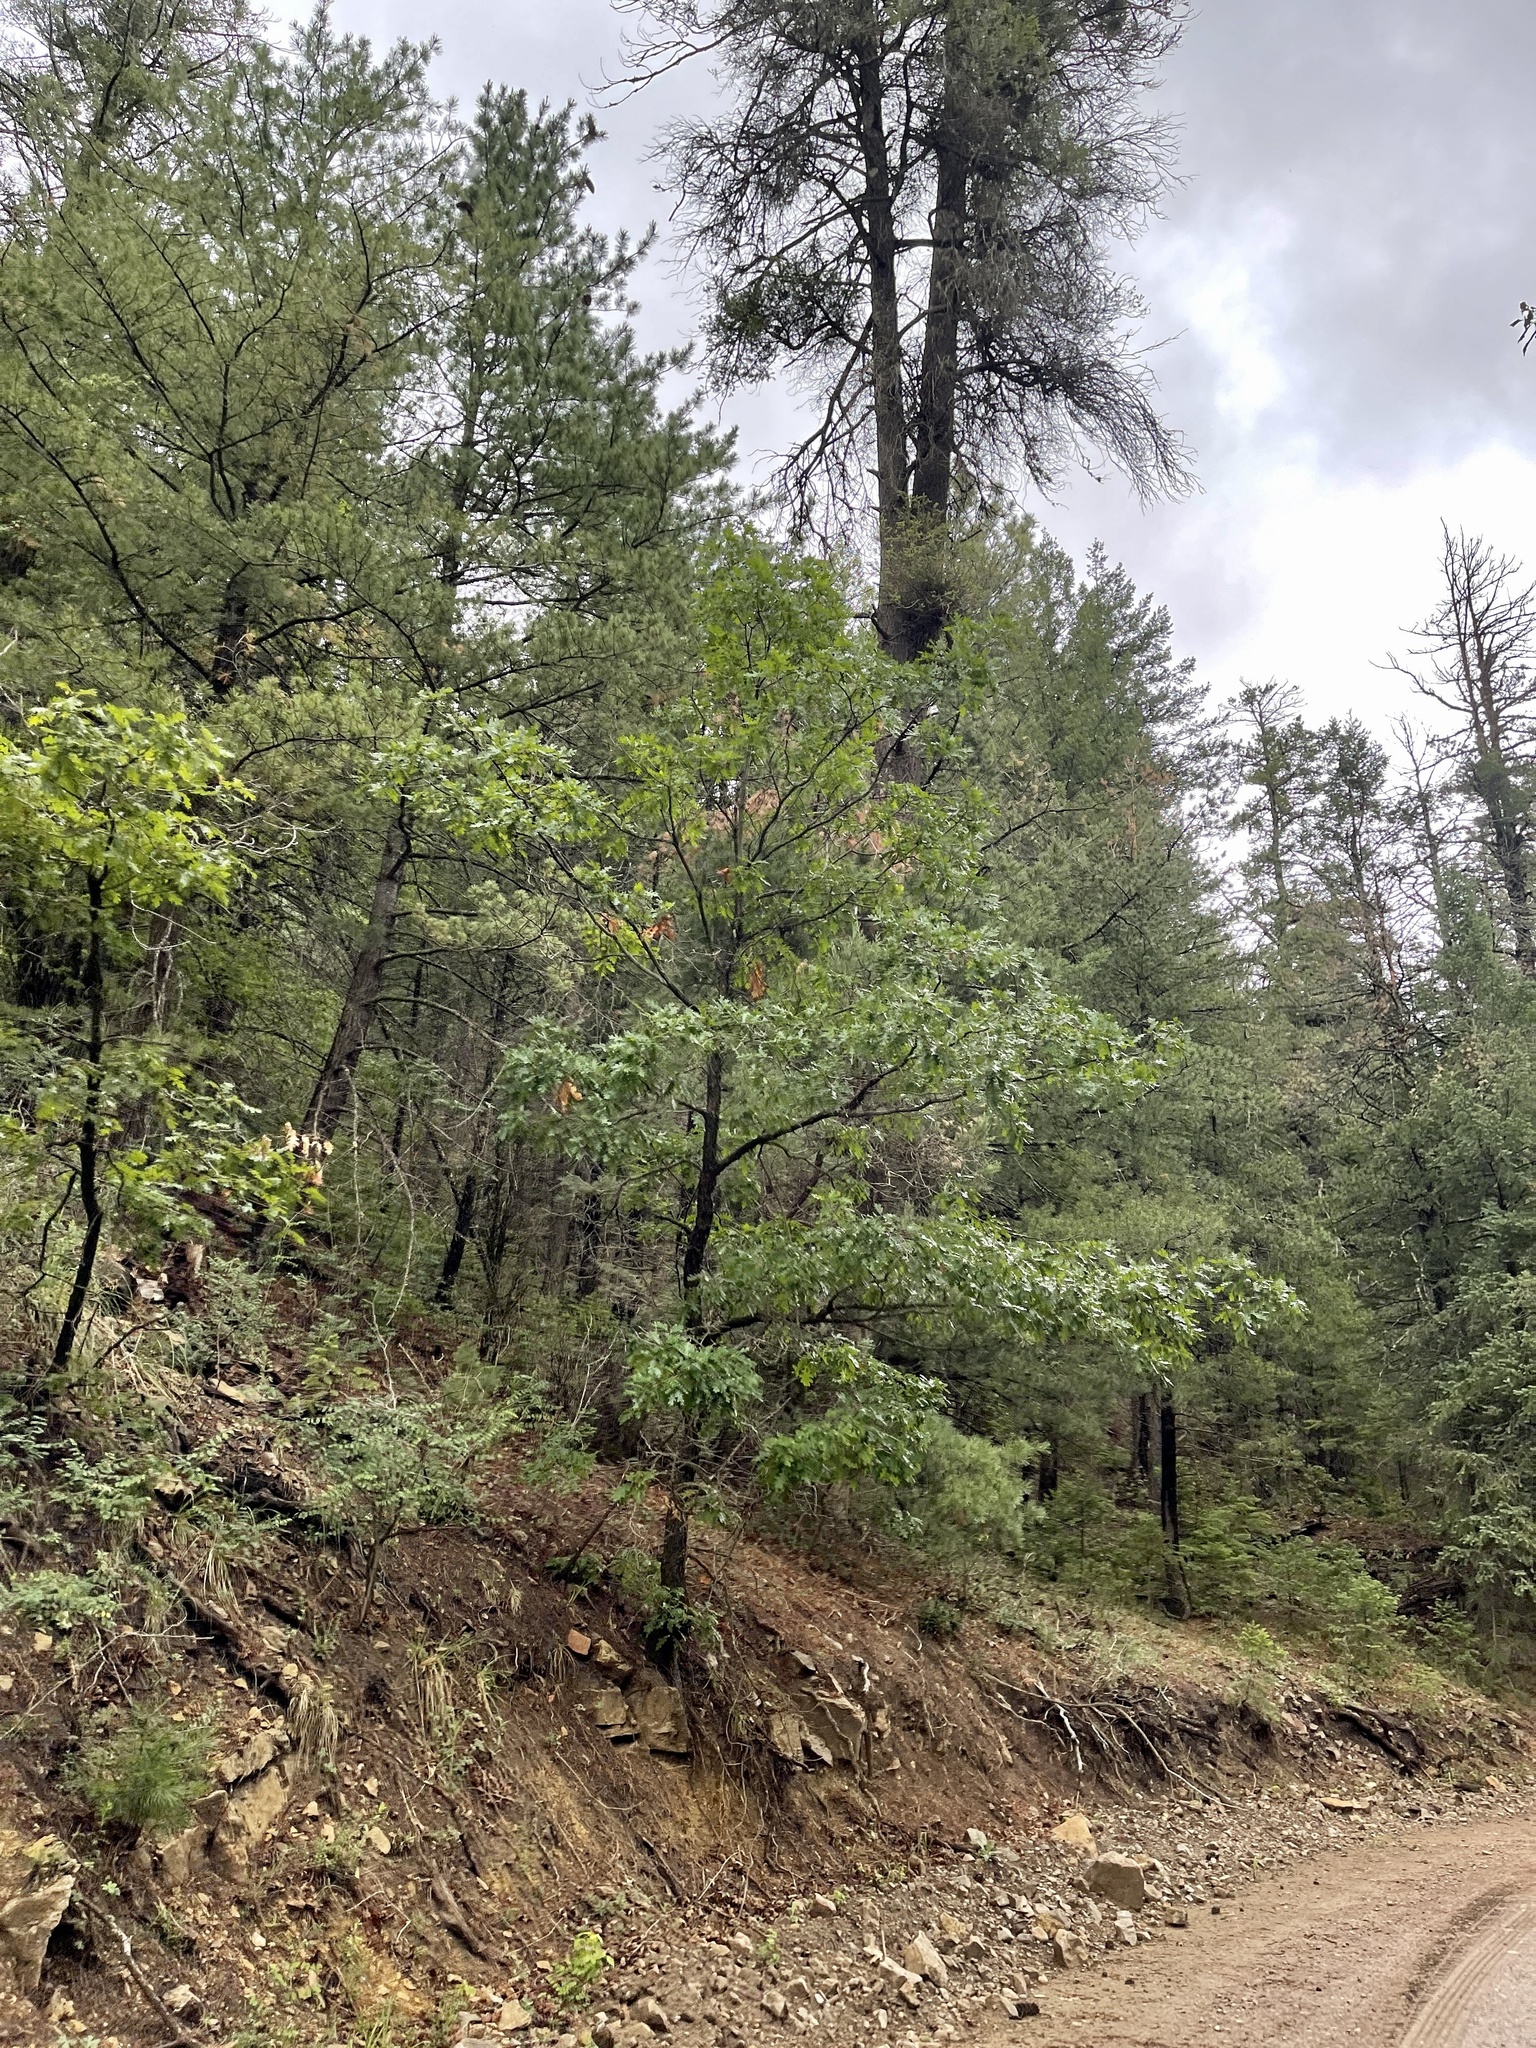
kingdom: Plantae
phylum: Tracheophyta
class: Magnoliopsida
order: Fagales
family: Fagaceae
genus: Quercus
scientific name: Quercus gambelii
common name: Gambel oak
